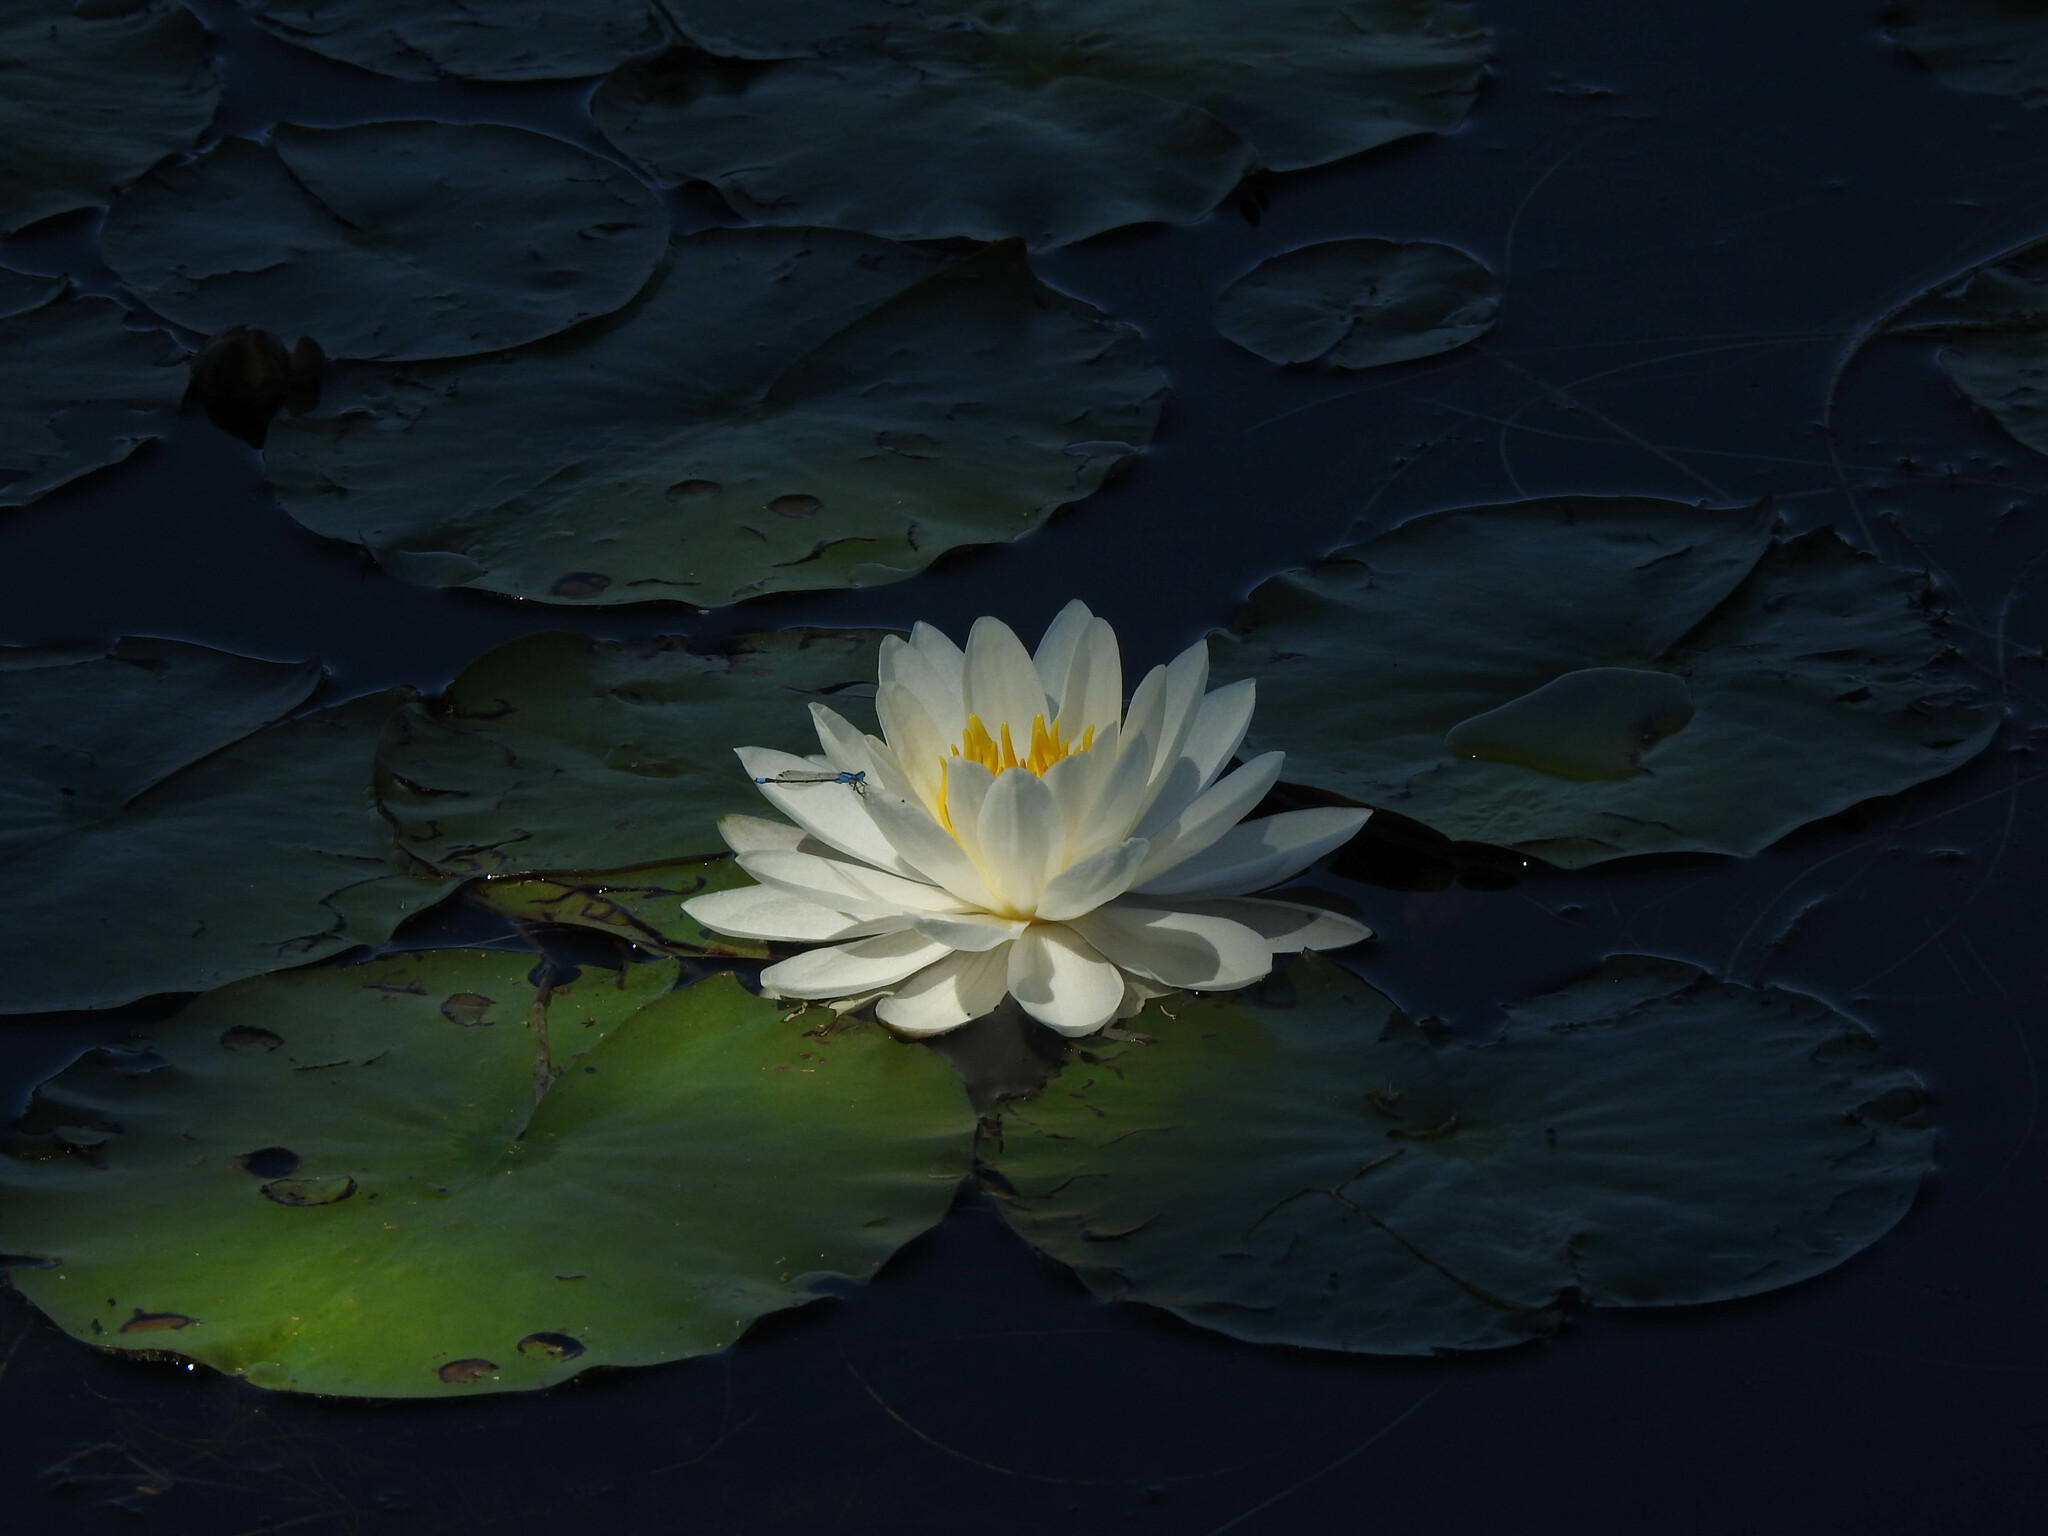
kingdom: Plantae
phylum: Tracheophyta
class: Magnoliopsida
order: Nymphaeales
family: Nymphaeaceae
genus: Nymphaea
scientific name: Nymphaea odorata
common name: Fragrant water-lily
